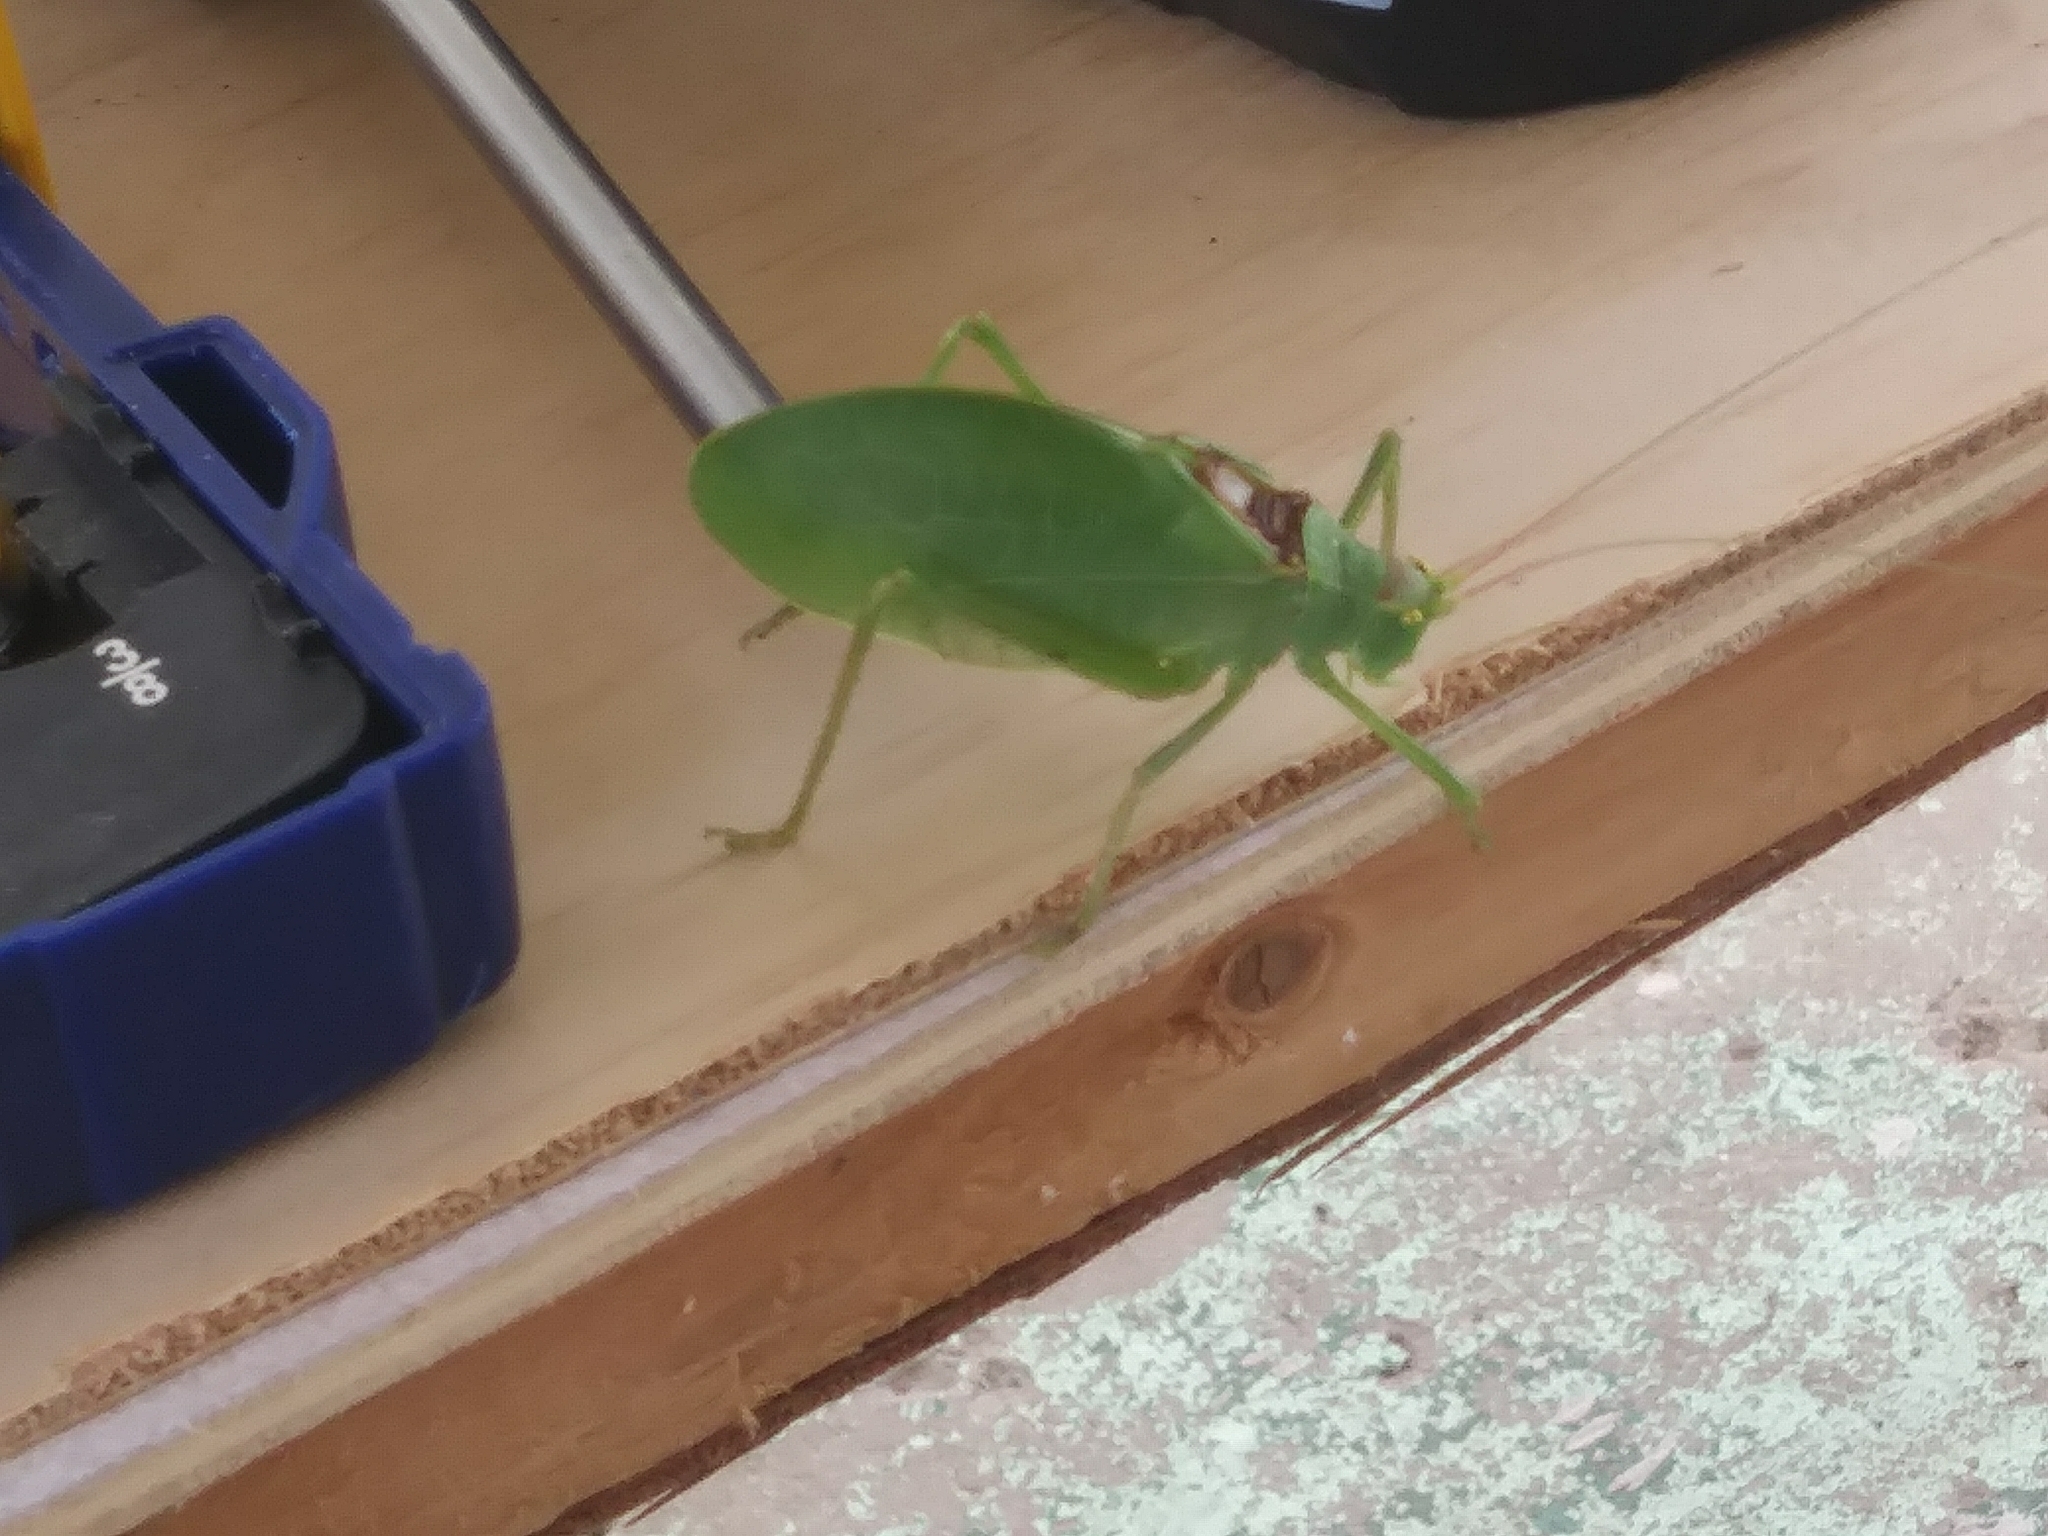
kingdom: Animalia
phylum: Arthropoda
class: Insecta
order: Orthoptera
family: Tettigoniidae
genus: Pterophylla
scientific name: Pterophylla camellifolia
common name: Common true katydid
